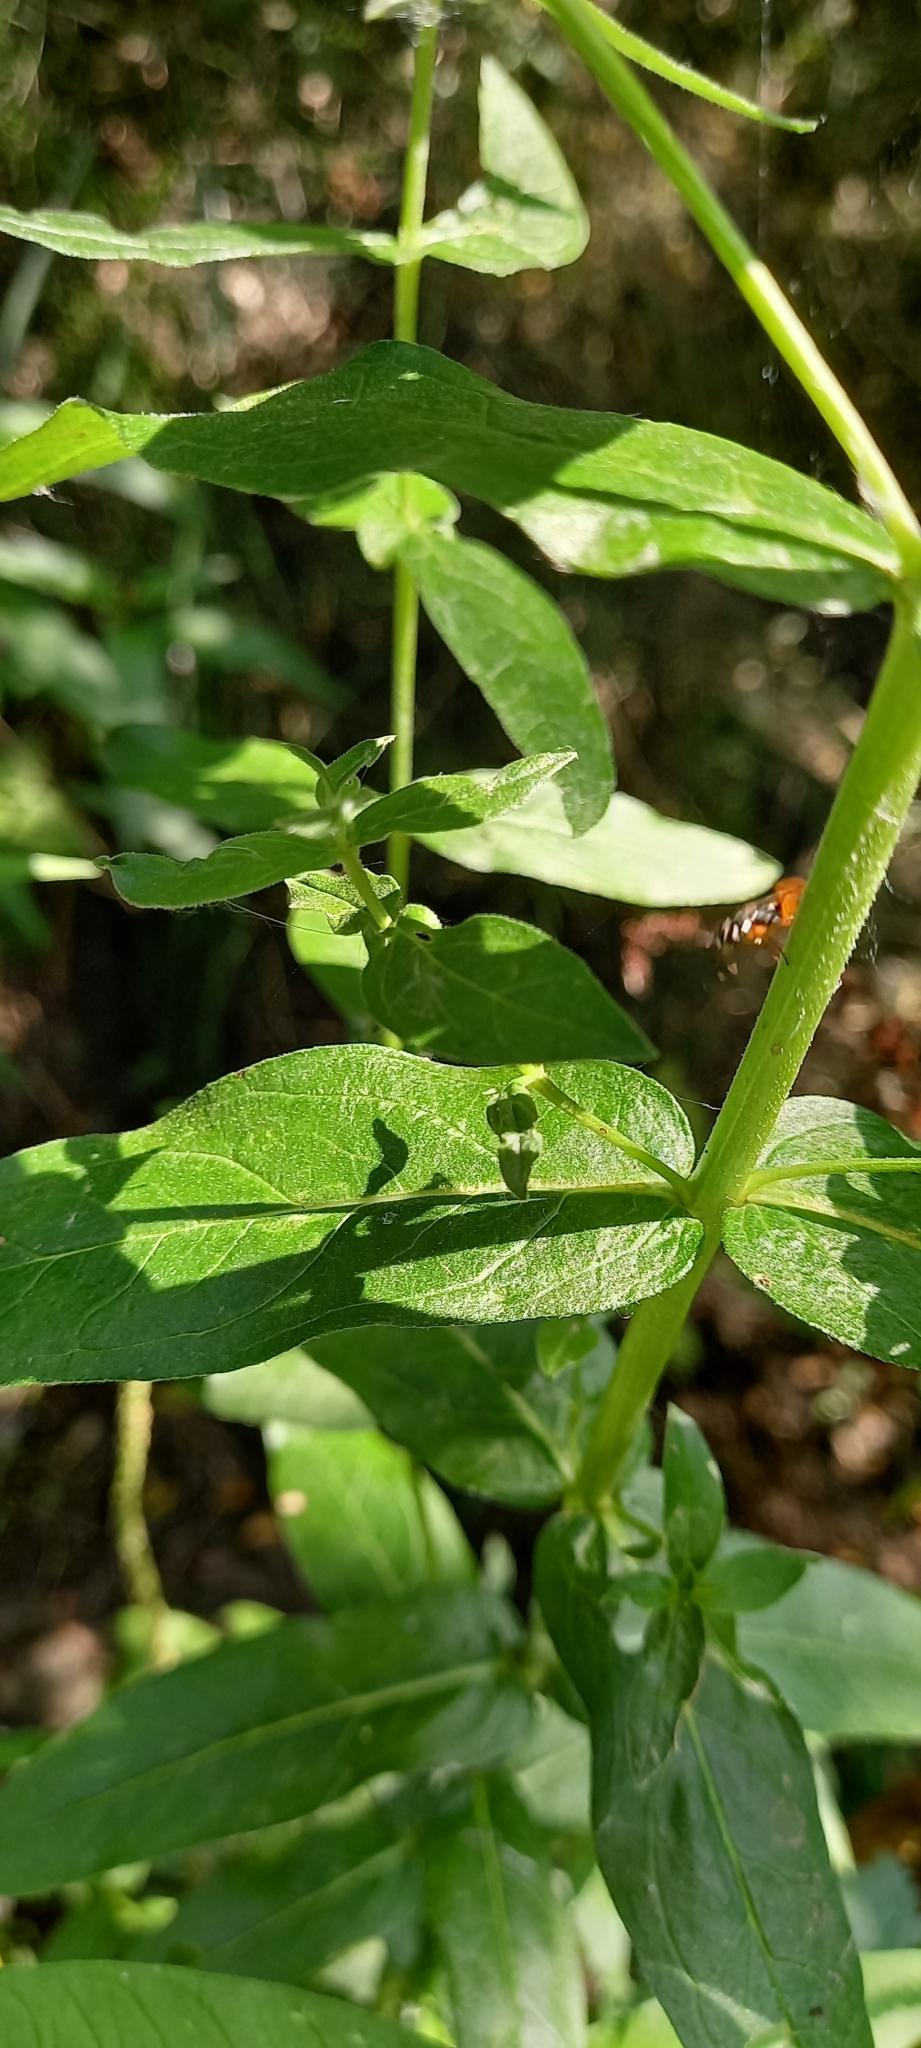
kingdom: Plantae
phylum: Tracheophyta
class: Magnoliopsida
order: Myrtales
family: Lythraceae
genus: Lythrum
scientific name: Lythrum salicaria
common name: Purple loosestrife
